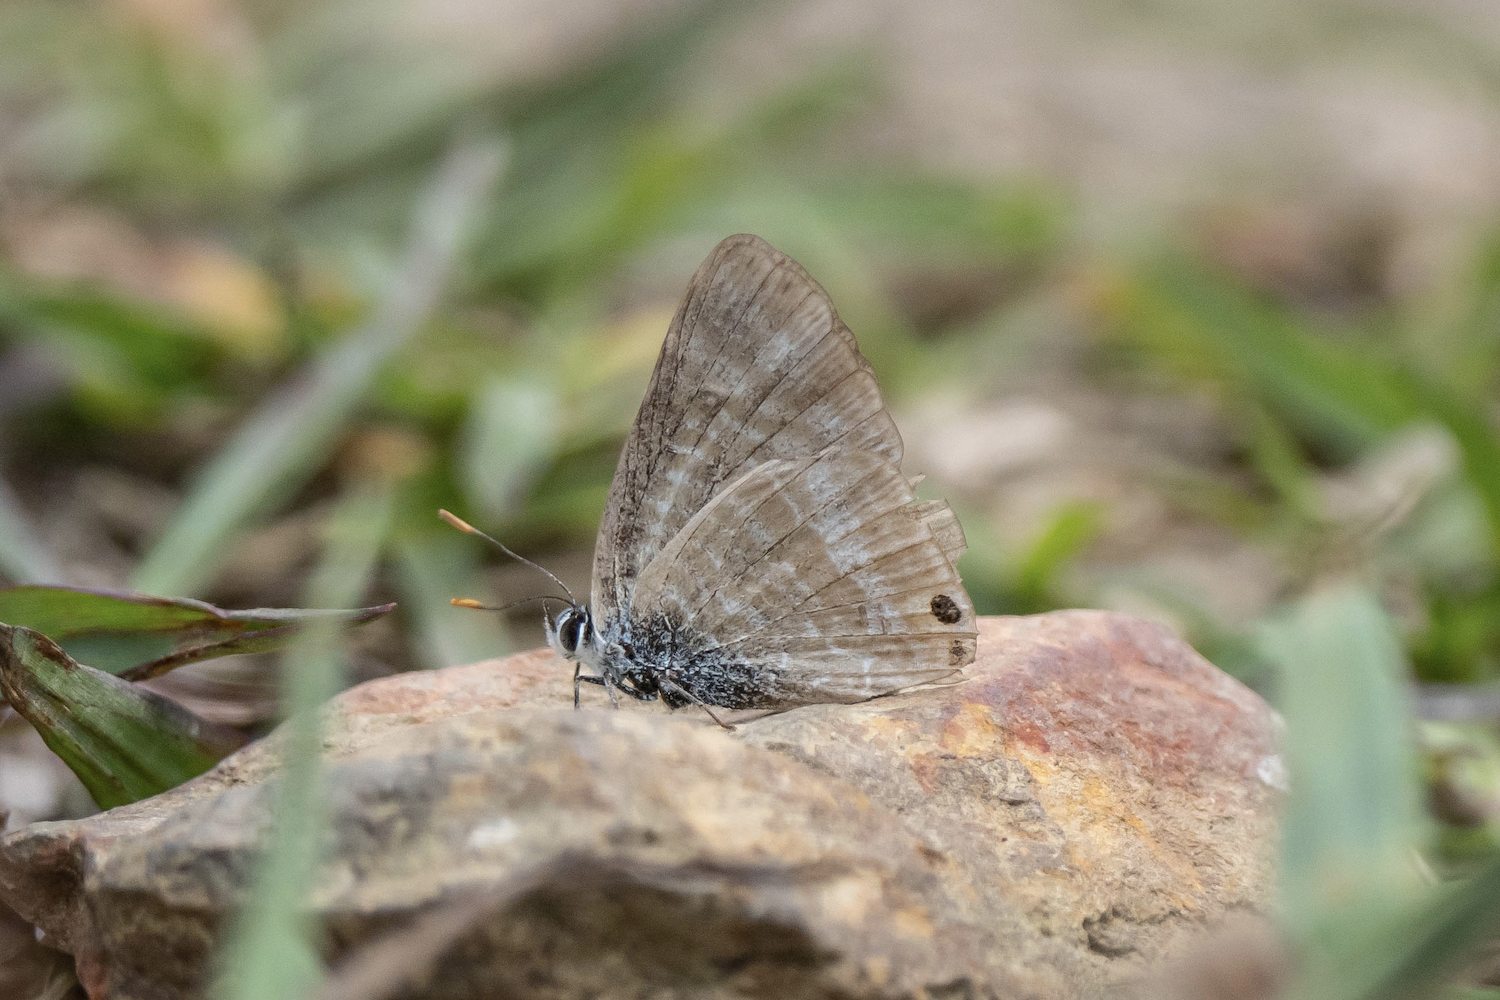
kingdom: Animalia
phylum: Arthropoda
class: Insecta
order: Lepidoptera
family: Lycaenidae
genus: Lampides
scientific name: Lampides boeticus
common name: Long-tailed blue
